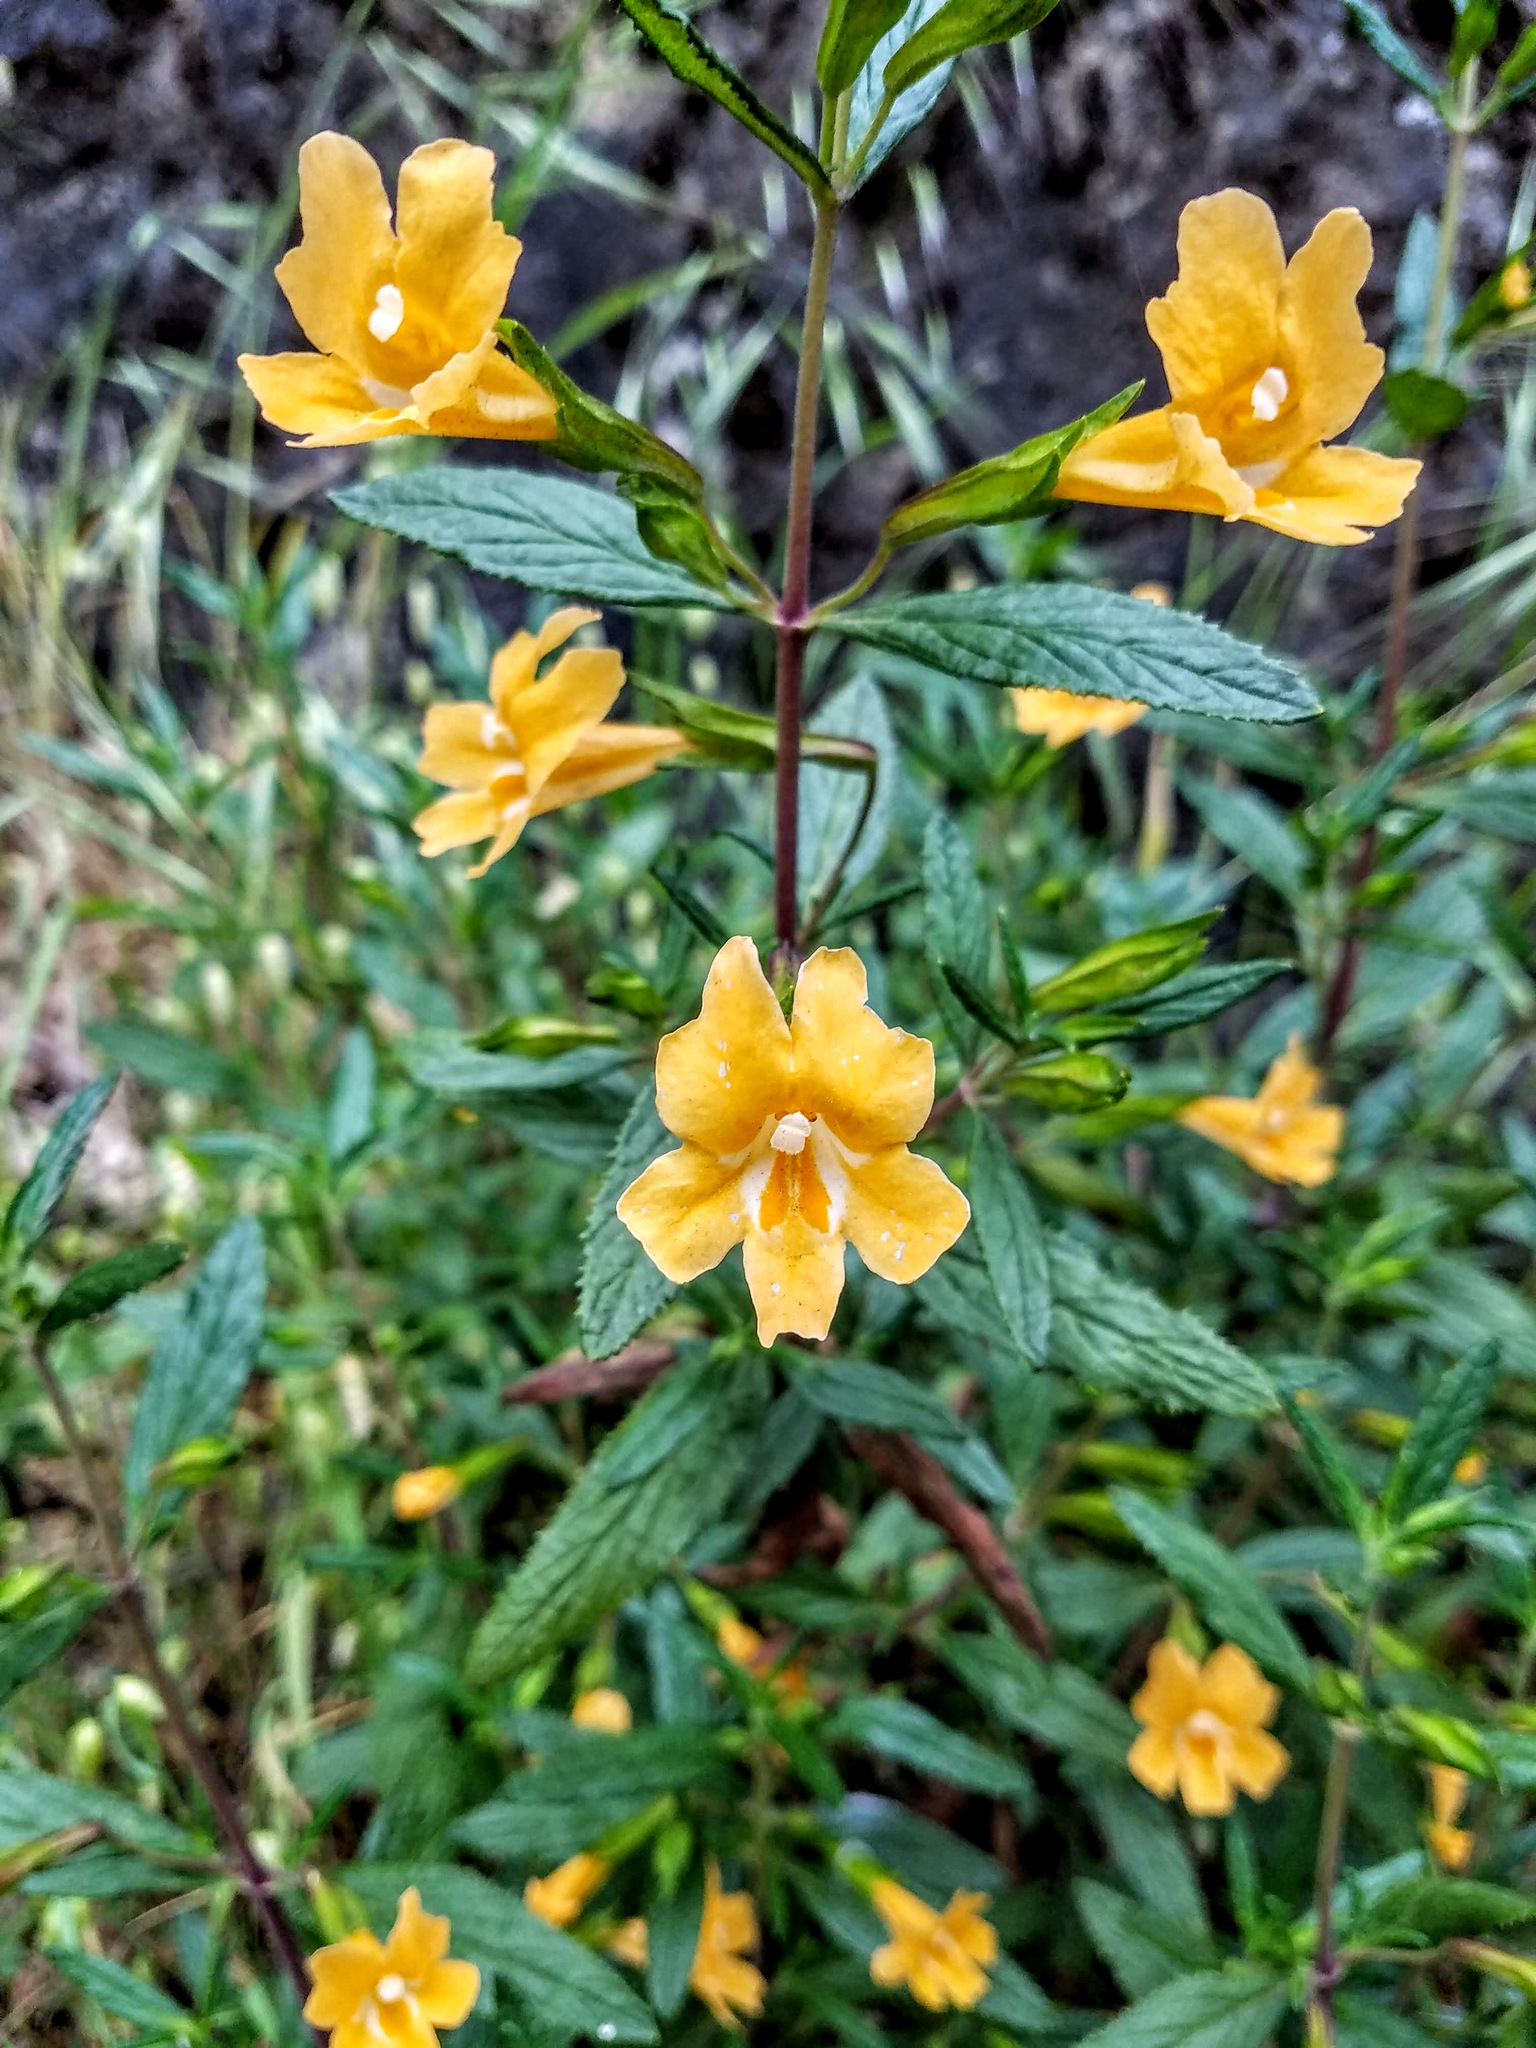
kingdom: Plantae
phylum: Tracheophyta
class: Magnoliopsida
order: Lamiales
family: Phrymaceae
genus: Diplacus
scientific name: Diplacus aurantiacus
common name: Bush monkey-flower
